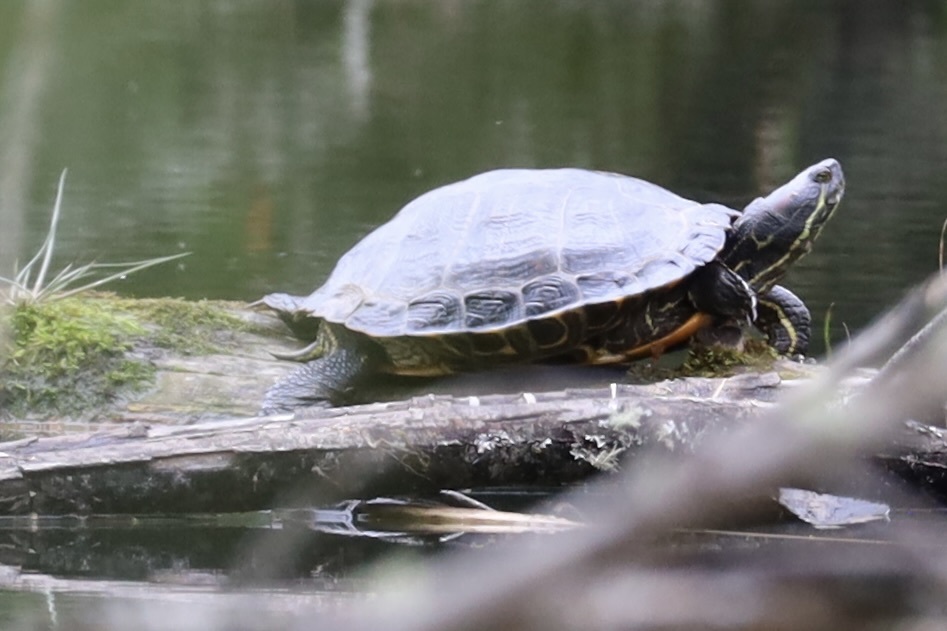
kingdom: Animalia
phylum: Chordata
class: Testudines
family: Emydidae
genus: Trachemys
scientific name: Trachemys scripta
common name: Slider
